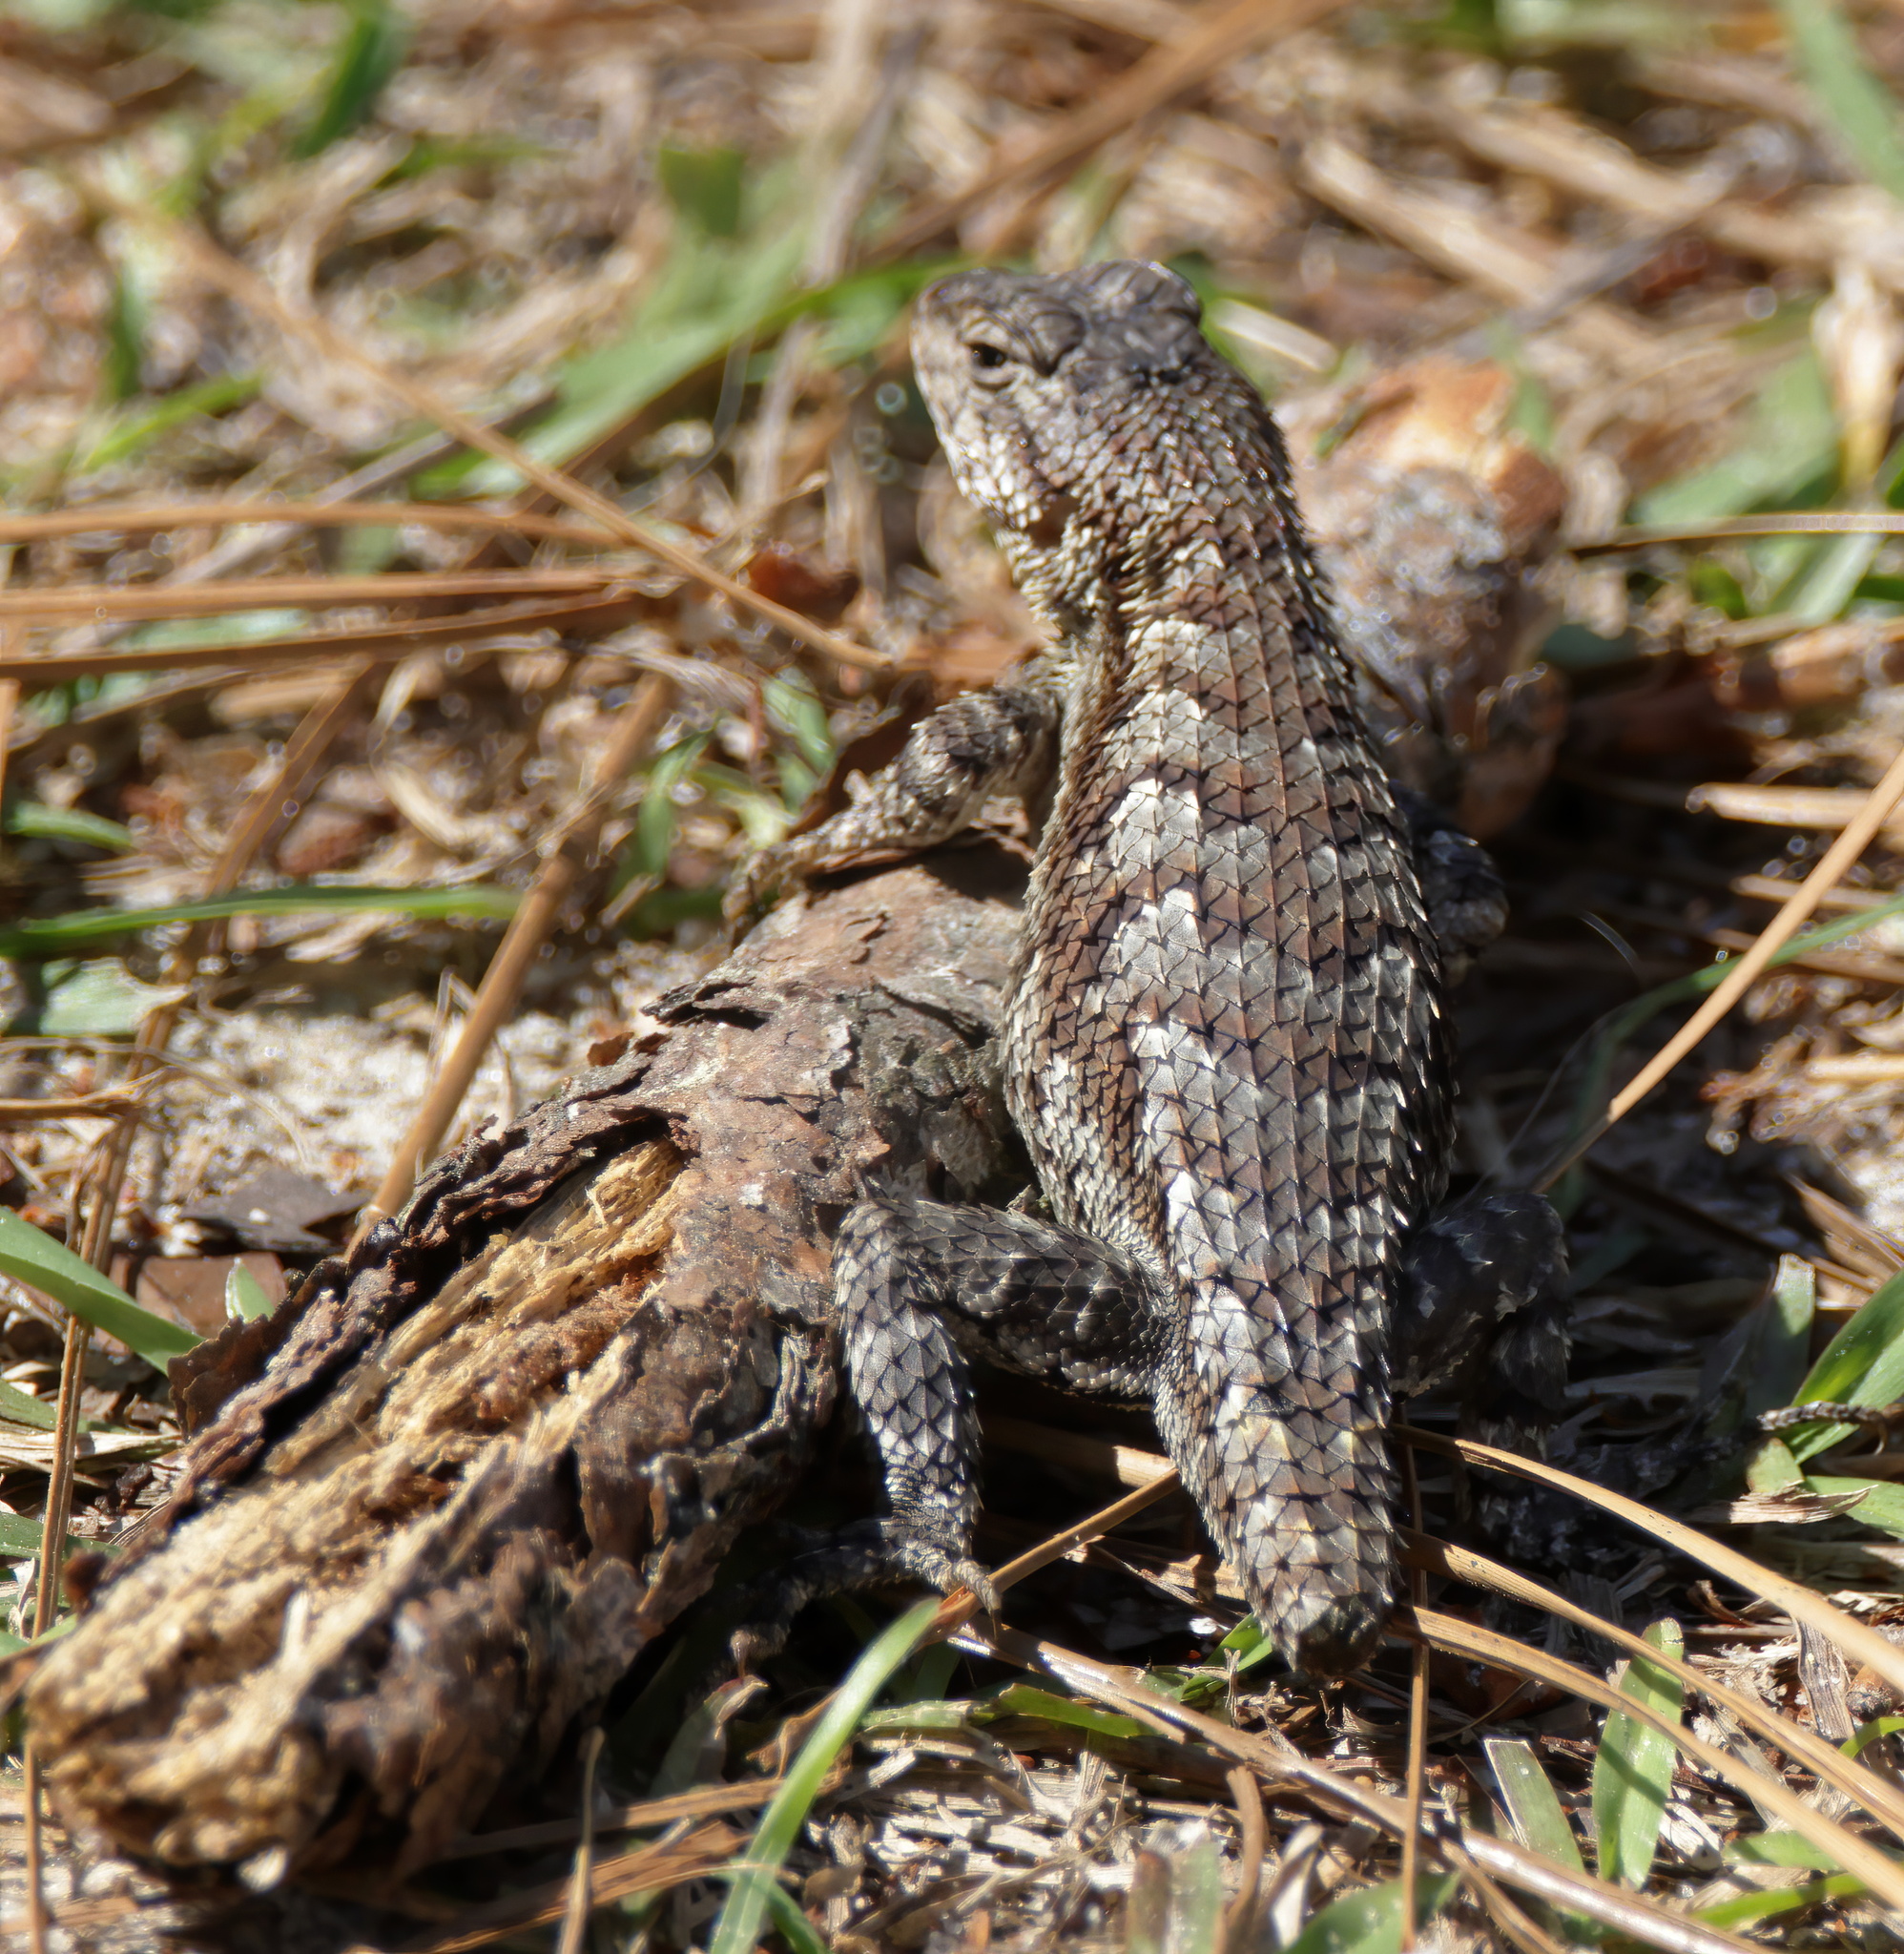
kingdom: Animalia
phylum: Chordata
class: Squamata
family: Phrynosomatidae
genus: Sceloporus
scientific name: Sceloporus undulatus
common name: Eastern fence lizard
